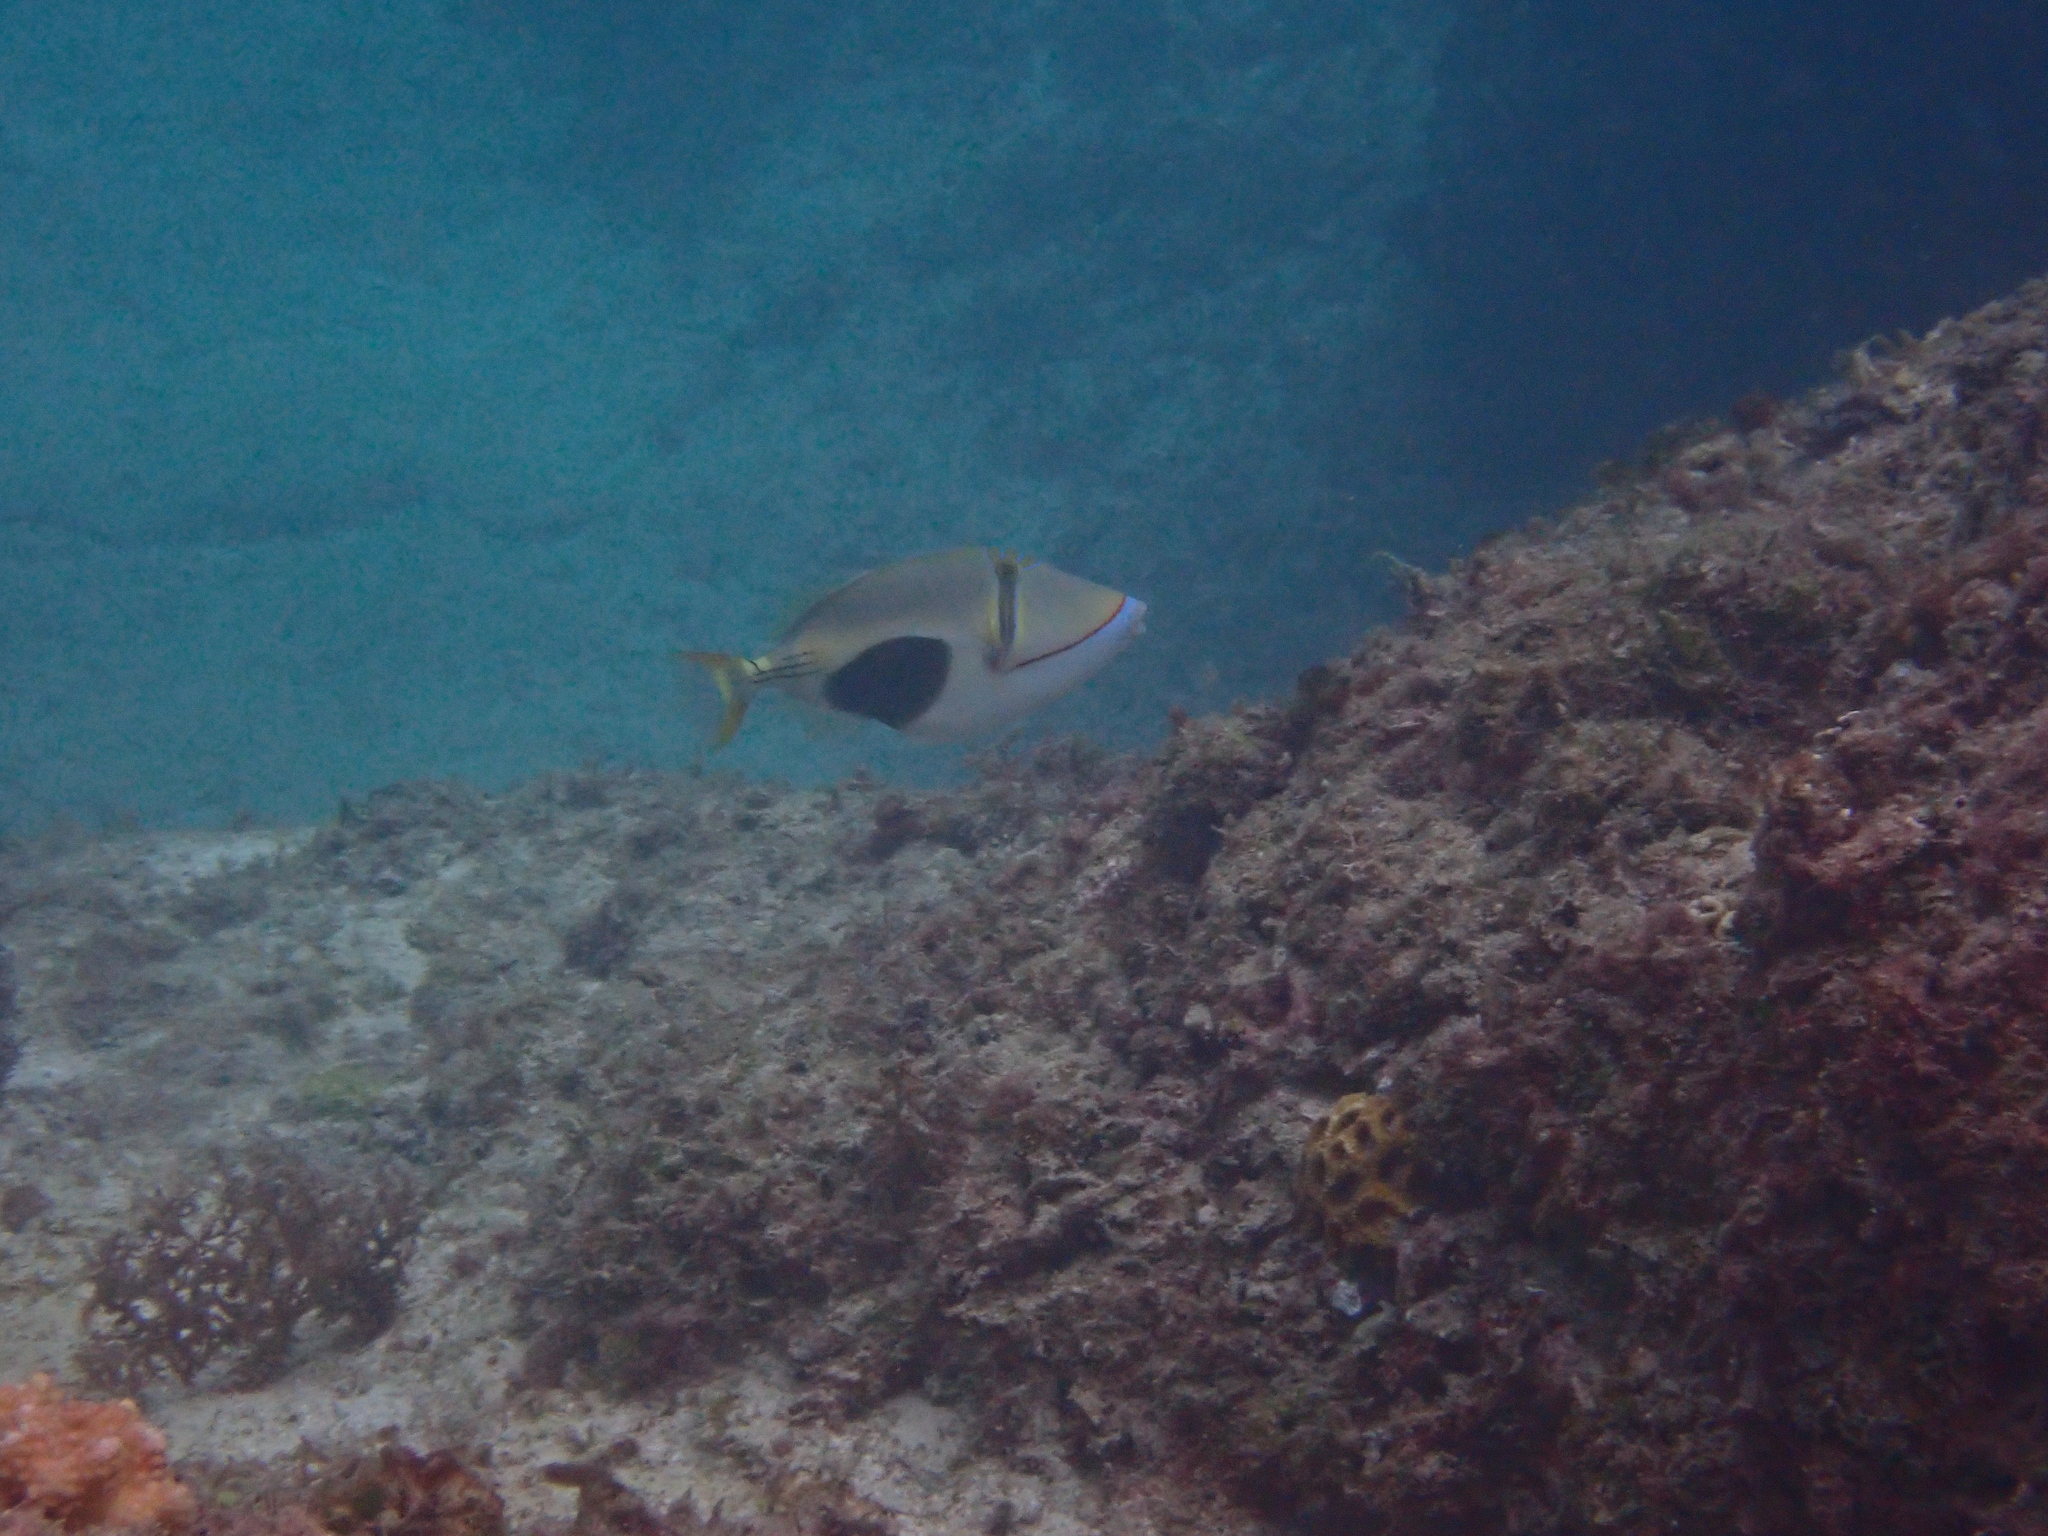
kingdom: Animalia
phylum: Chordata
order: Tetraodontiformes
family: Balistidae
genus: Rhinecanthus
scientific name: Rhinecanthus verrucosus
